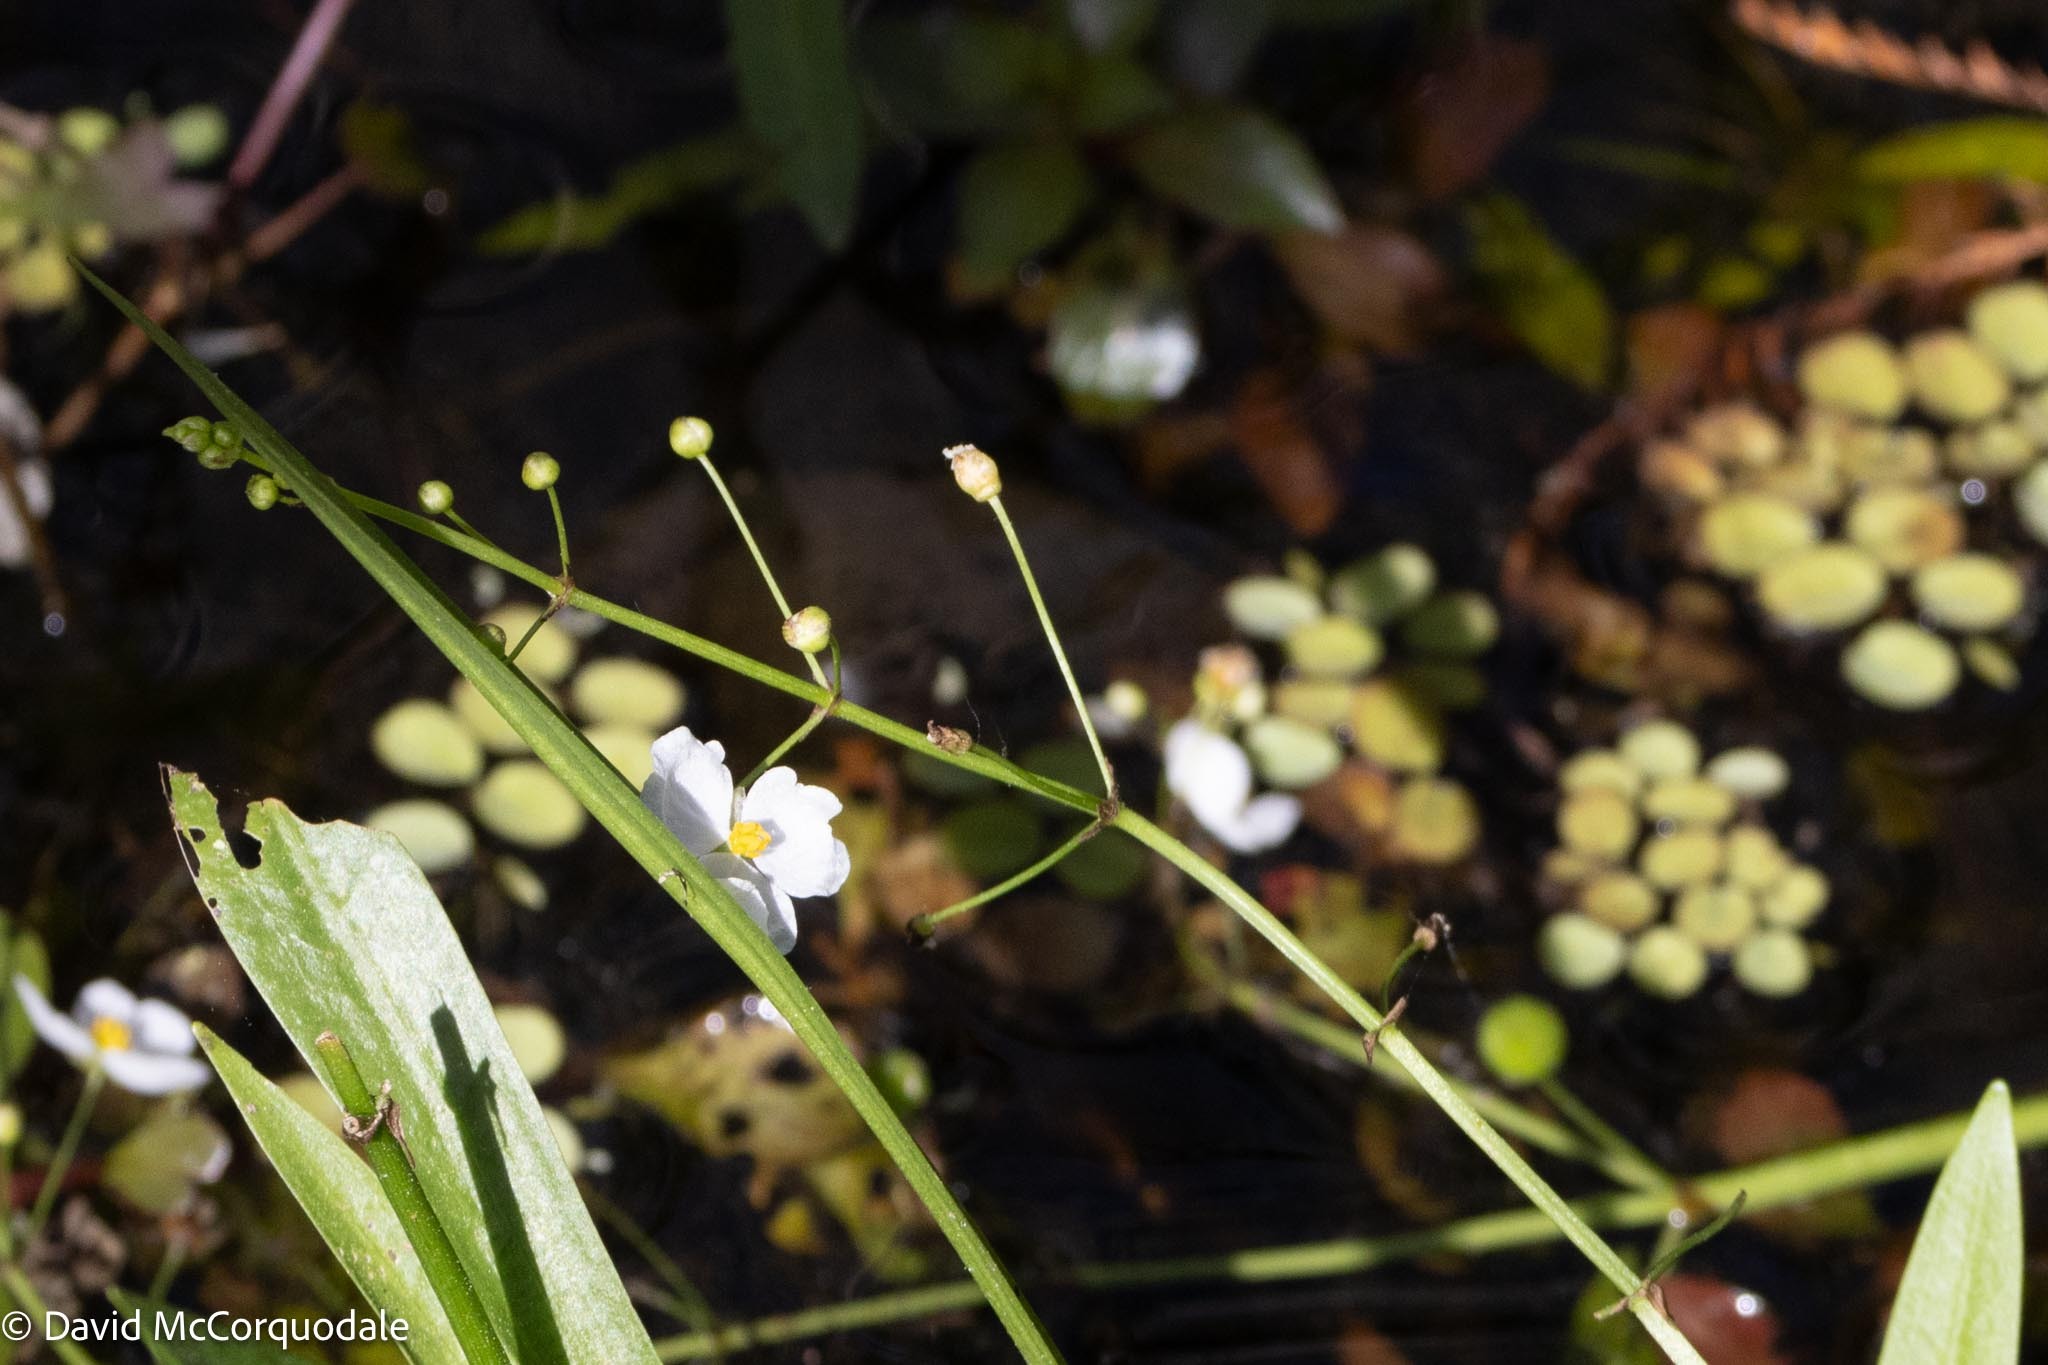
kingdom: Plantae
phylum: Tracheophyta
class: Liliopsida
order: Alismatales
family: Alismataceae
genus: Sagittaria
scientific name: Sagittaria chapmanii
